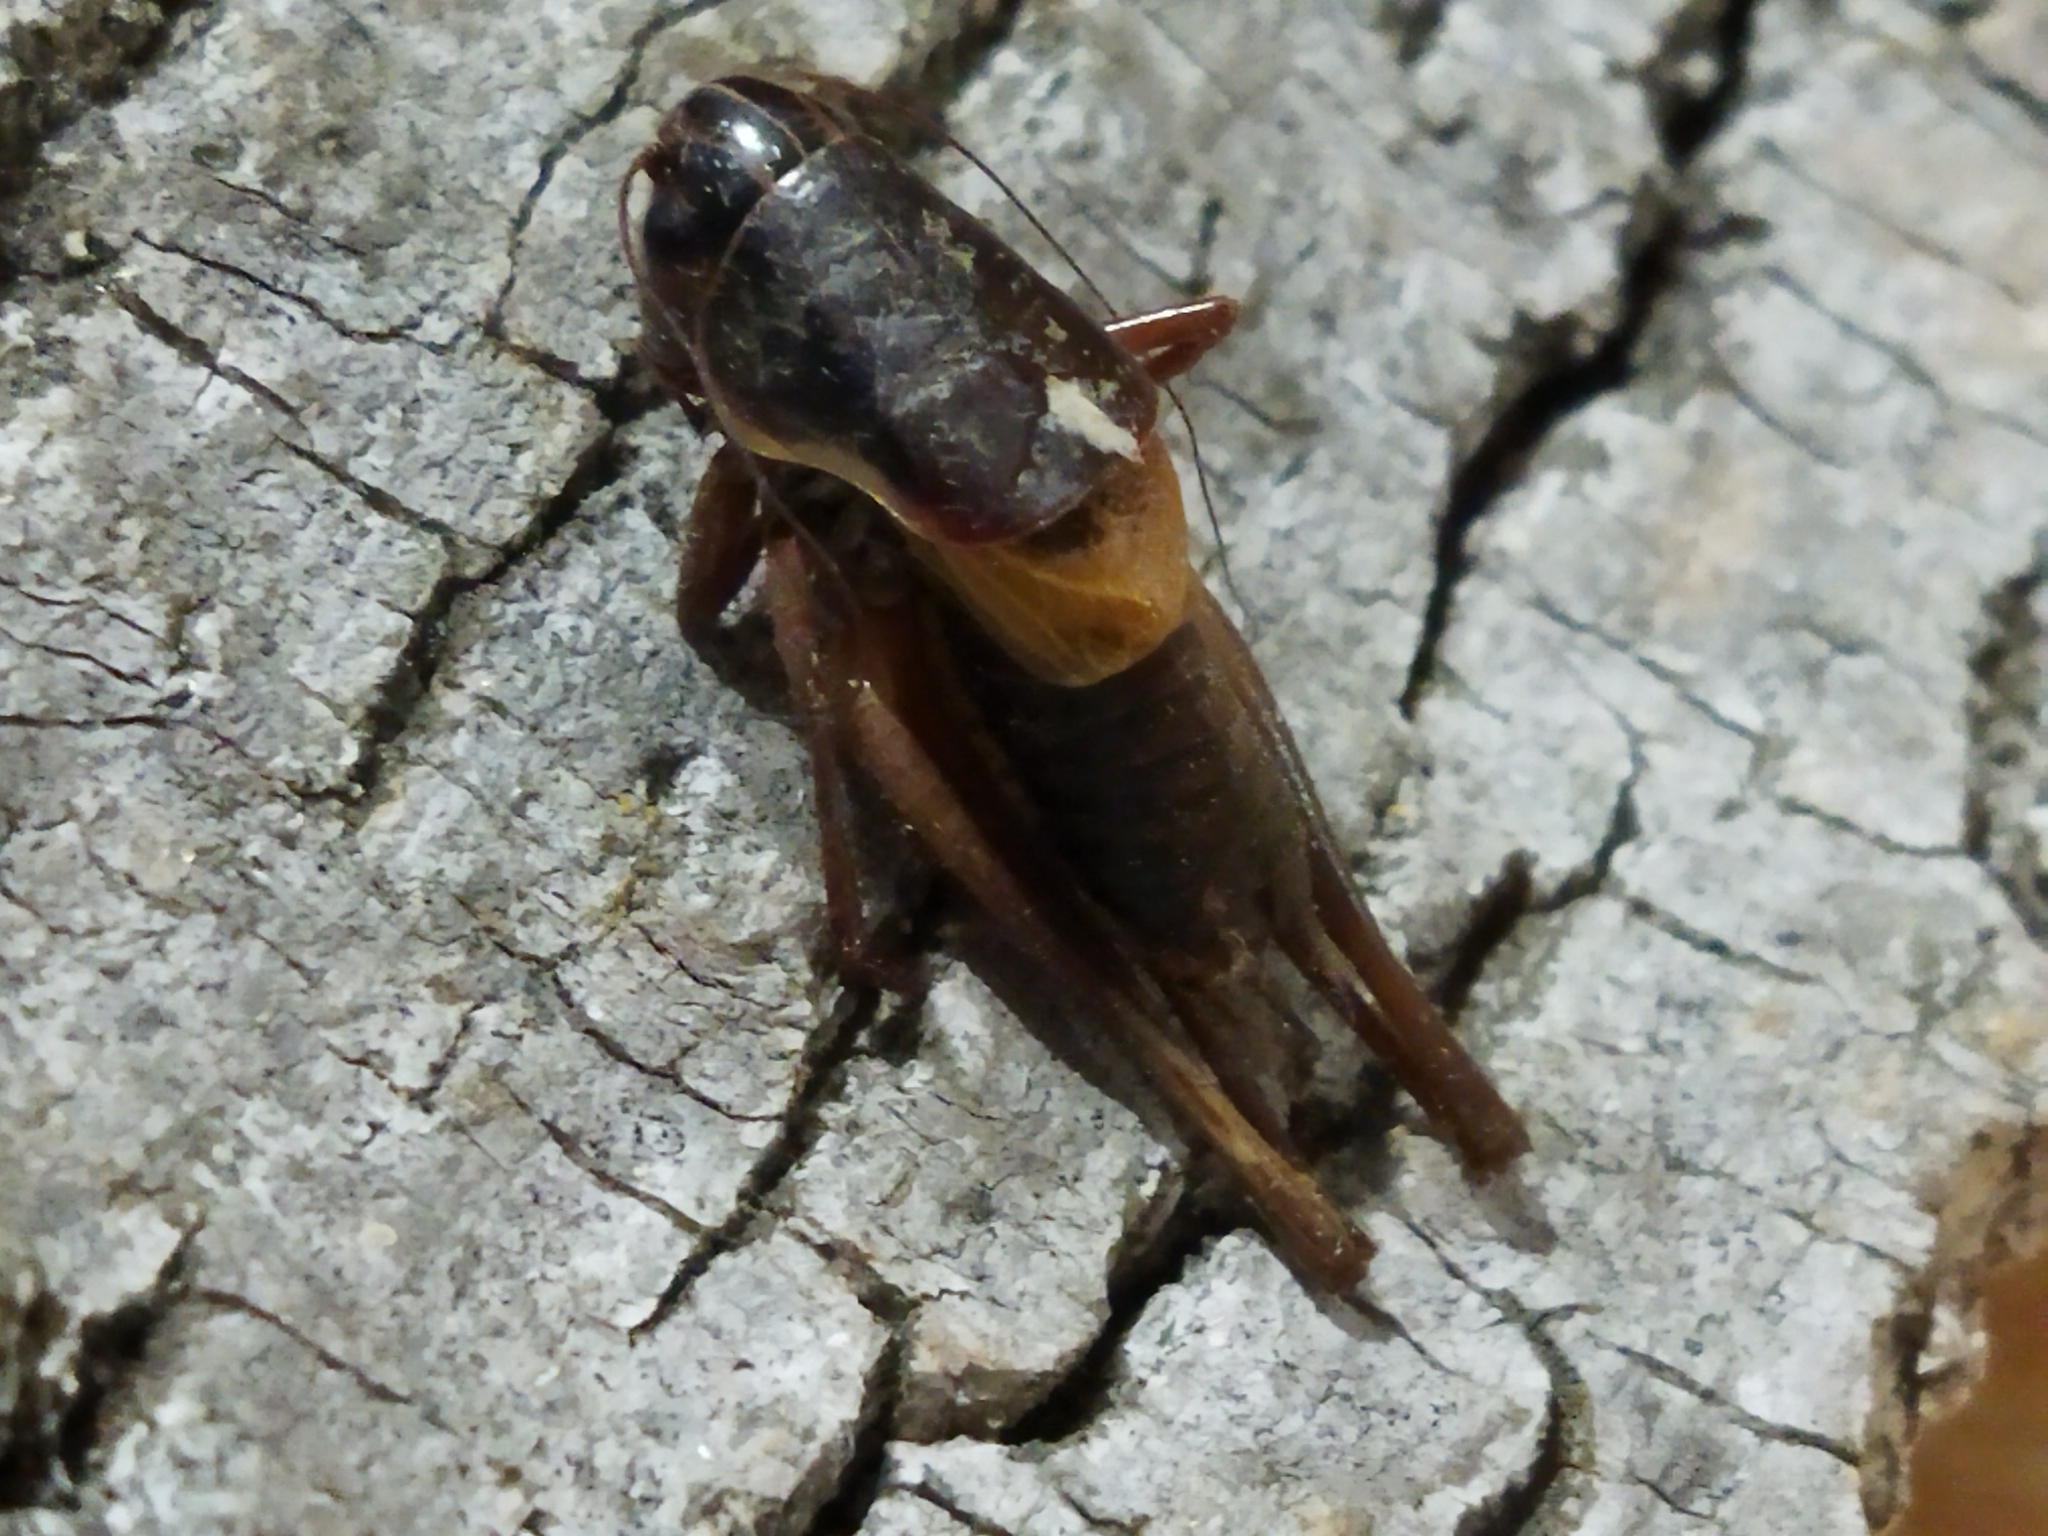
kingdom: Animalia
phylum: Arthropoda
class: Insecta
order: Orthoptera
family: Tettigoniidae
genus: Pholidoptera
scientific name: Pholidoptera brevipes
